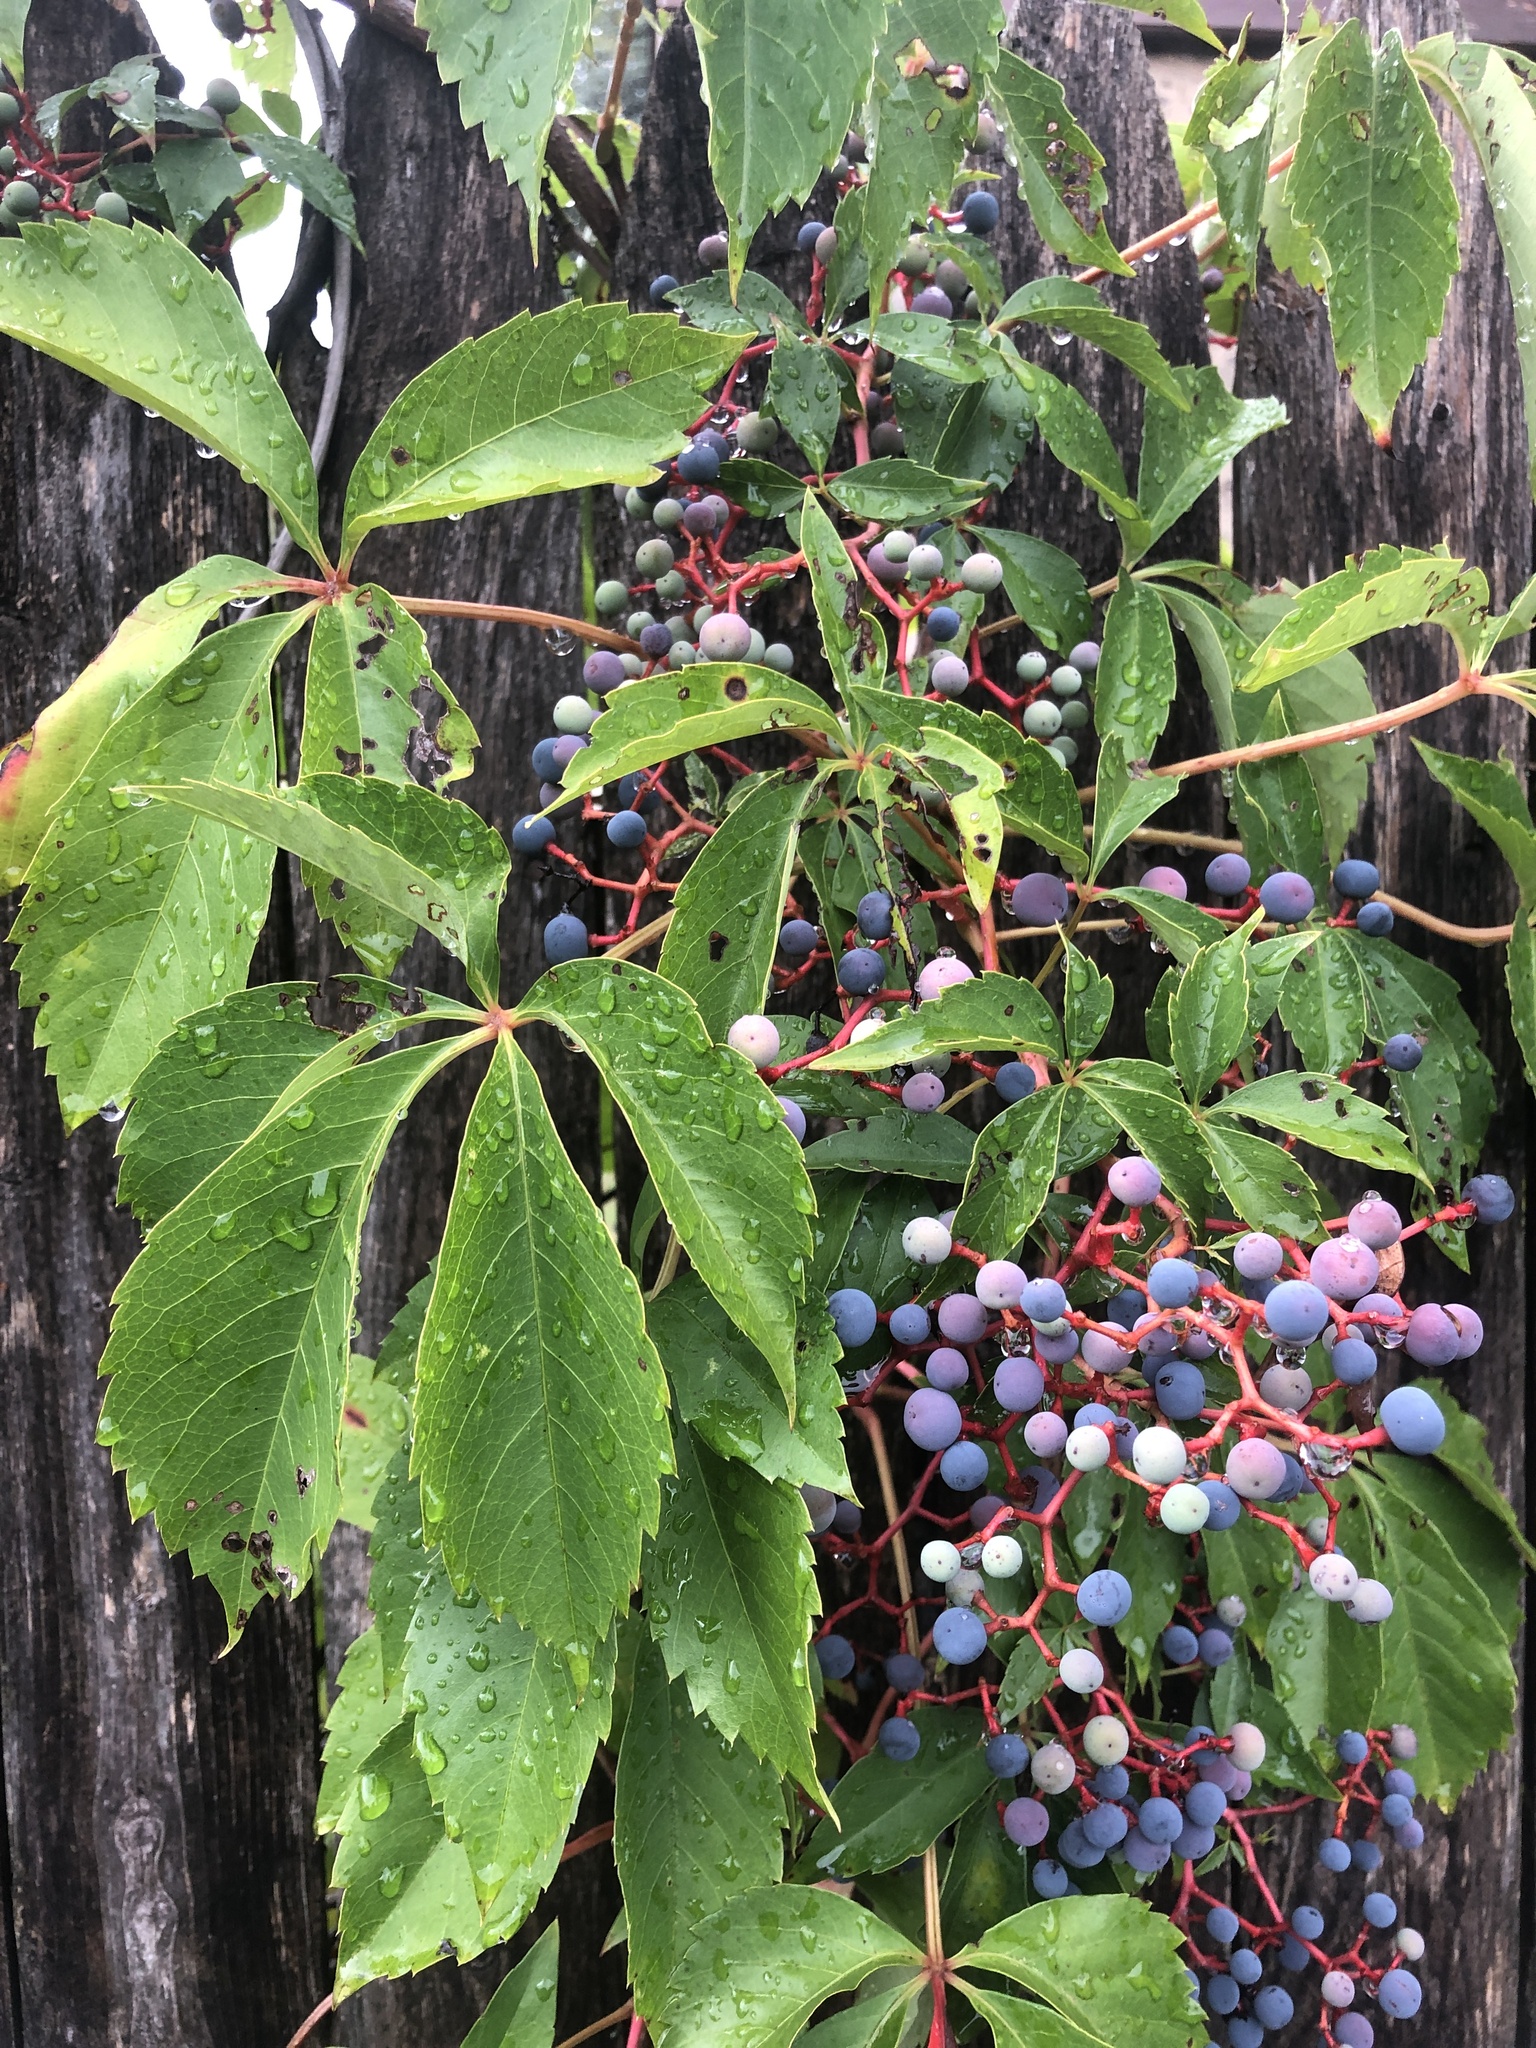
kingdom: Plantae
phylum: Tracheophyta
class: Magnoliopsida
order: Vitales
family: Vitaceae
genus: Parthenocissus
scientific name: Parthenocissus quinquefolia
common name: Virginia-creeper
